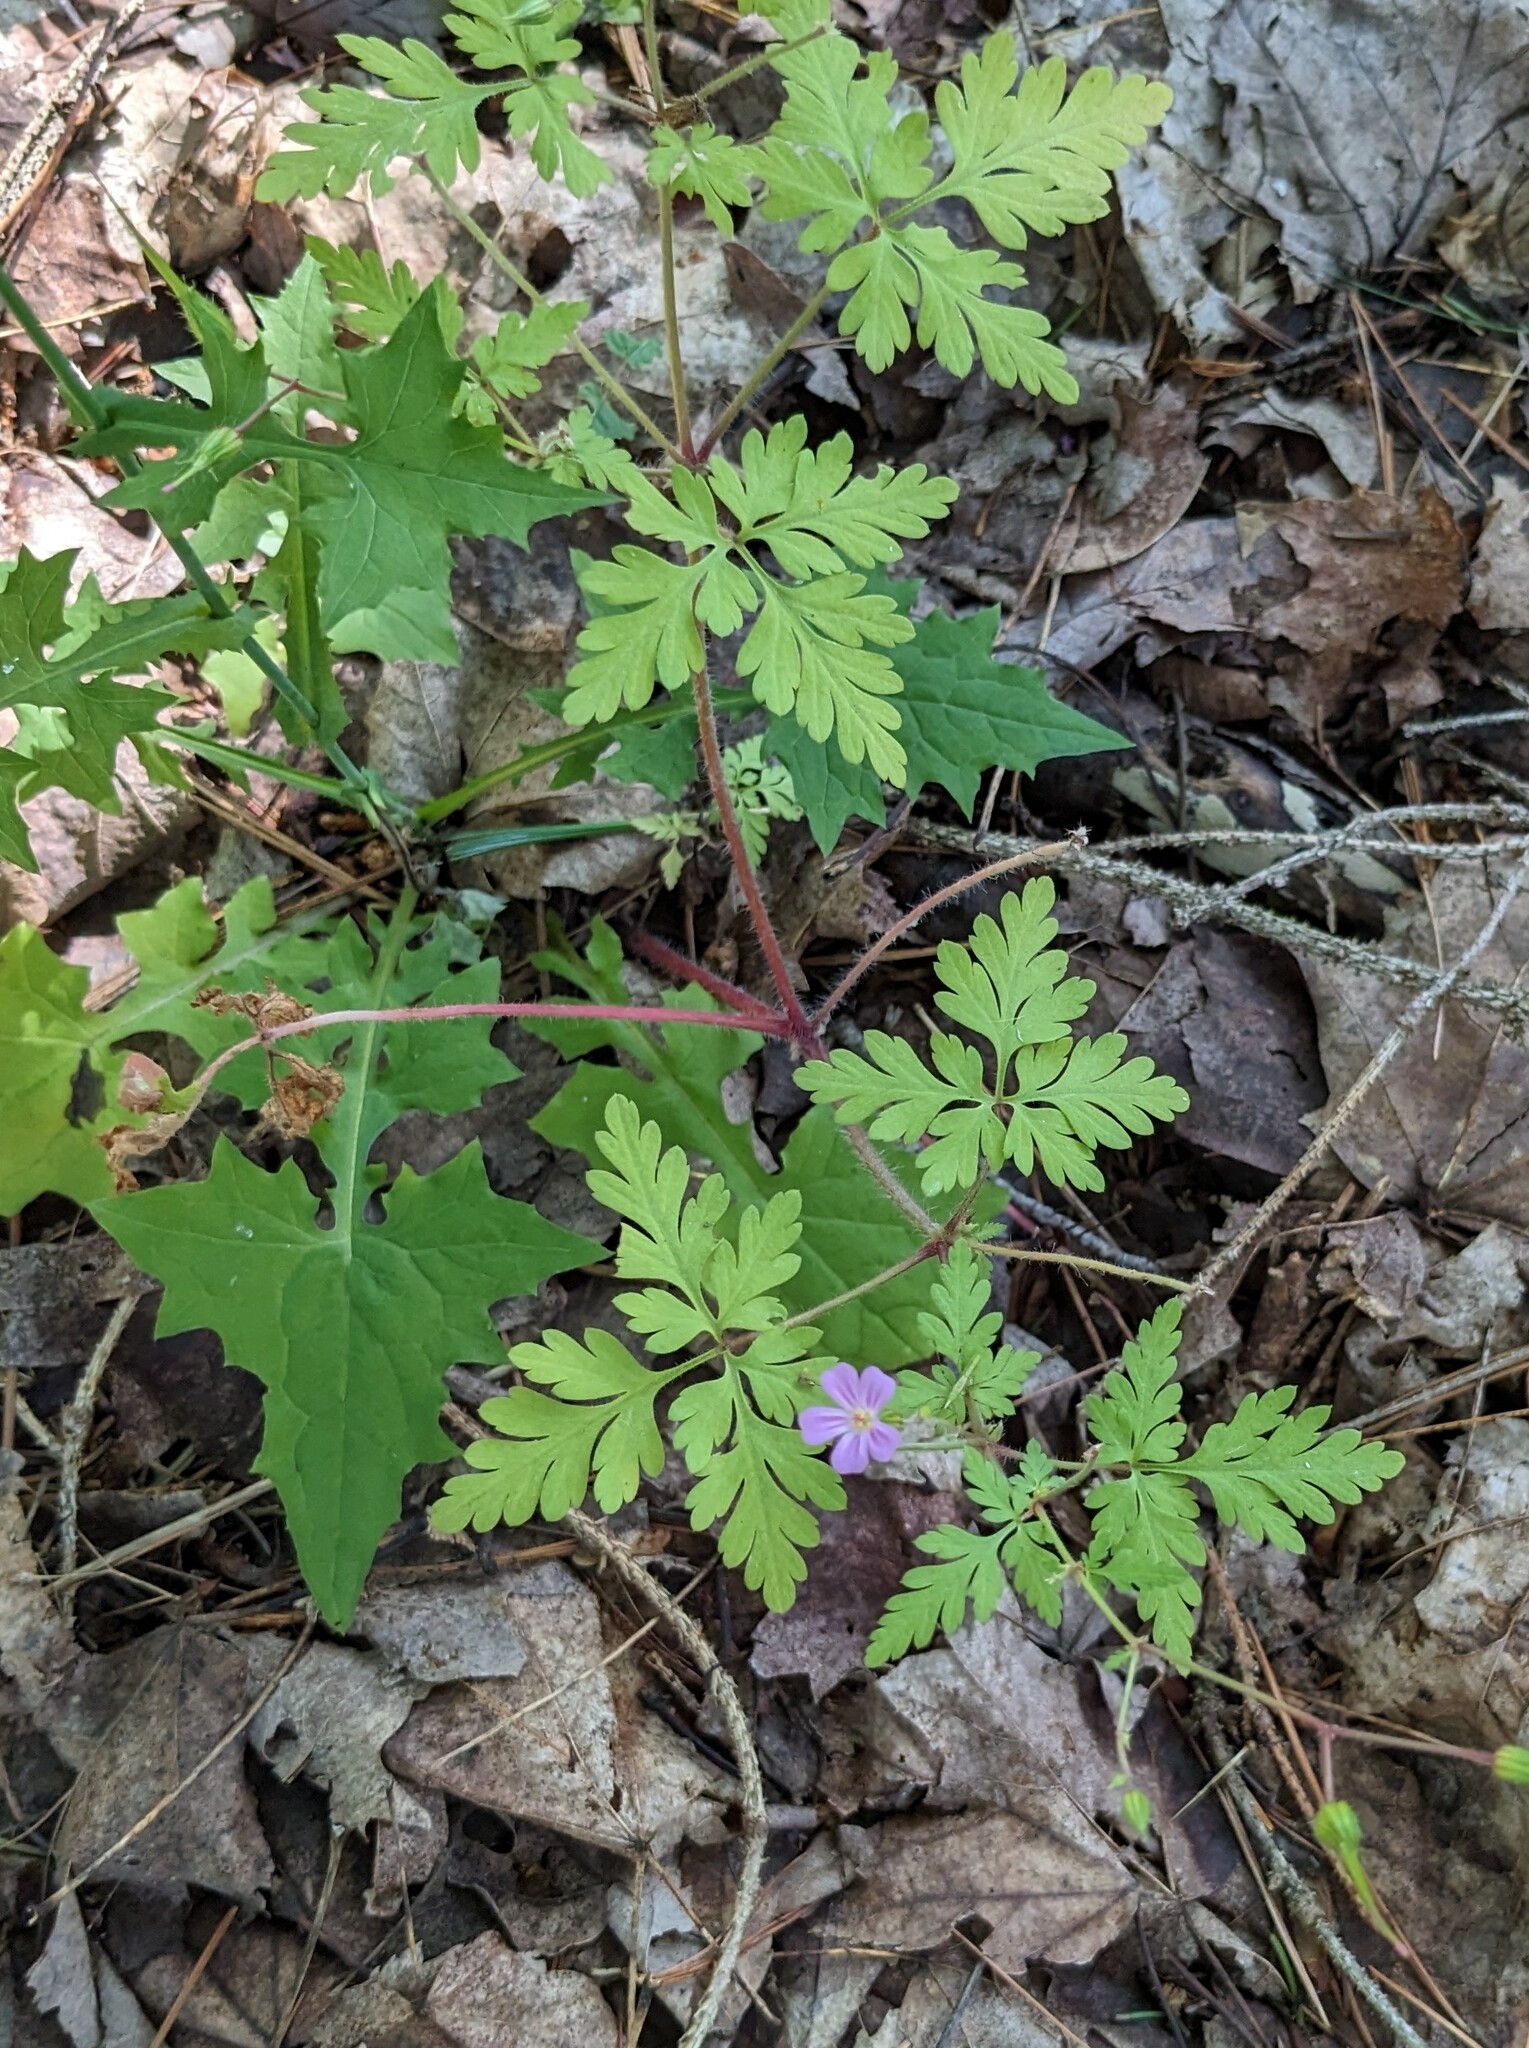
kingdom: Plantae
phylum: Tracheophyta
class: Magnoliopsida
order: Geraniales
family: Geraniaceae
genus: Geranium
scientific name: Geranium robertianum
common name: Herb-robert
